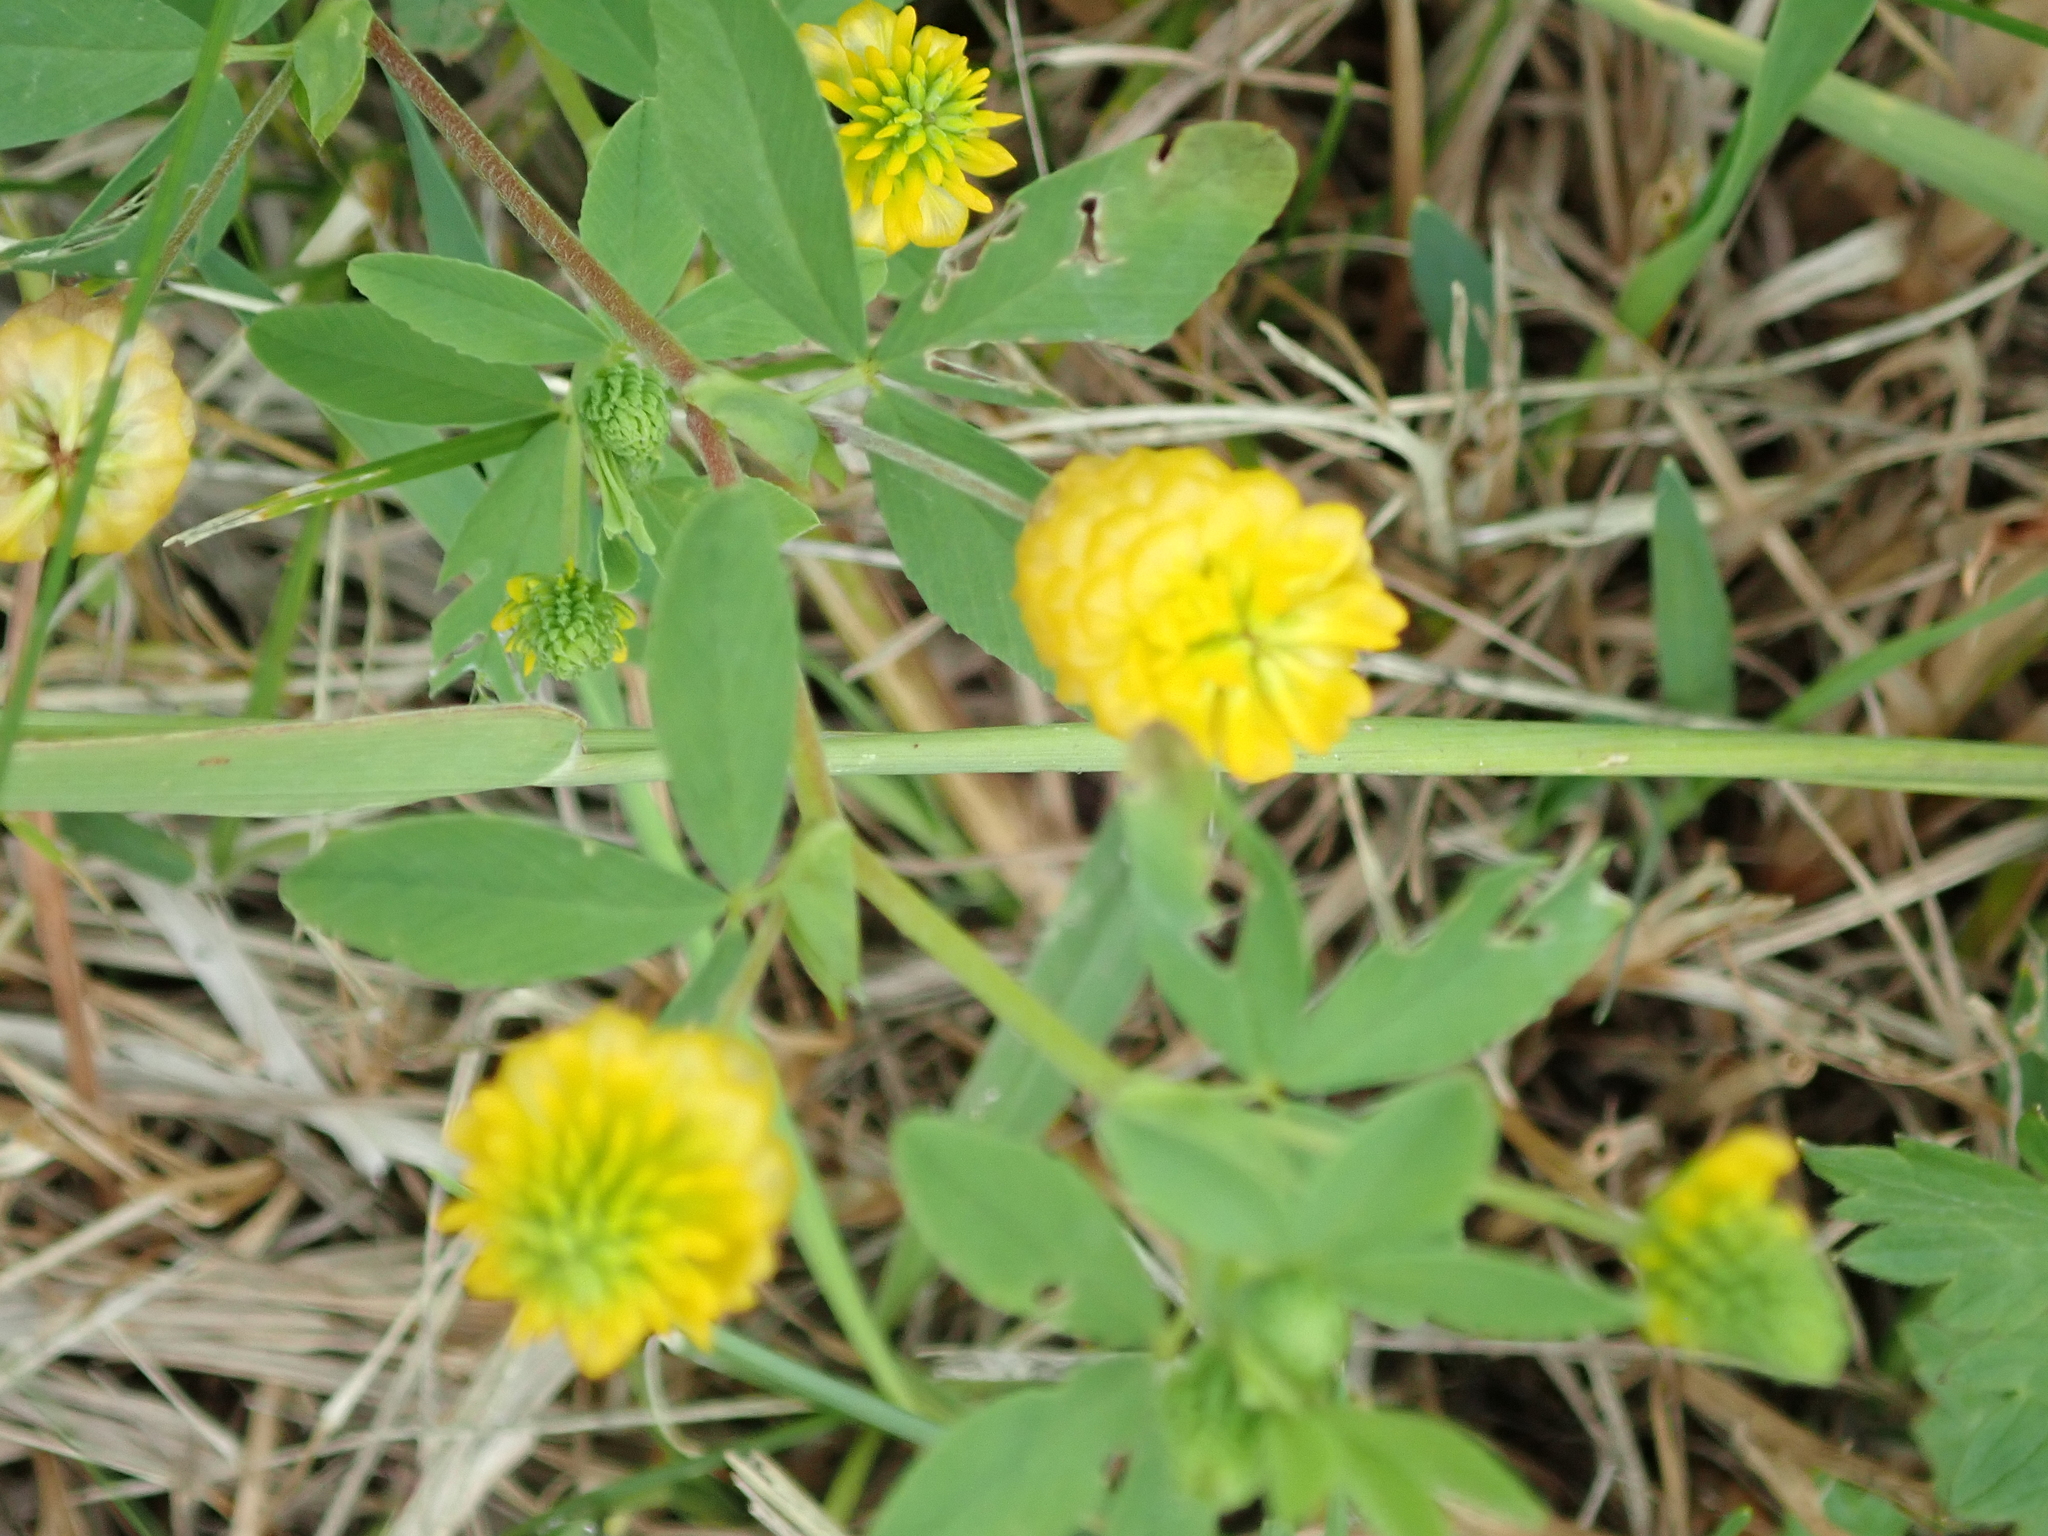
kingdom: Plantae
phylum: Tracheophyta
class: Magnoliopsida
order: Fabales
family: Fabaceae
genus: Trifolium
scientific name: Trifolium aureum
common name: Golden clover
